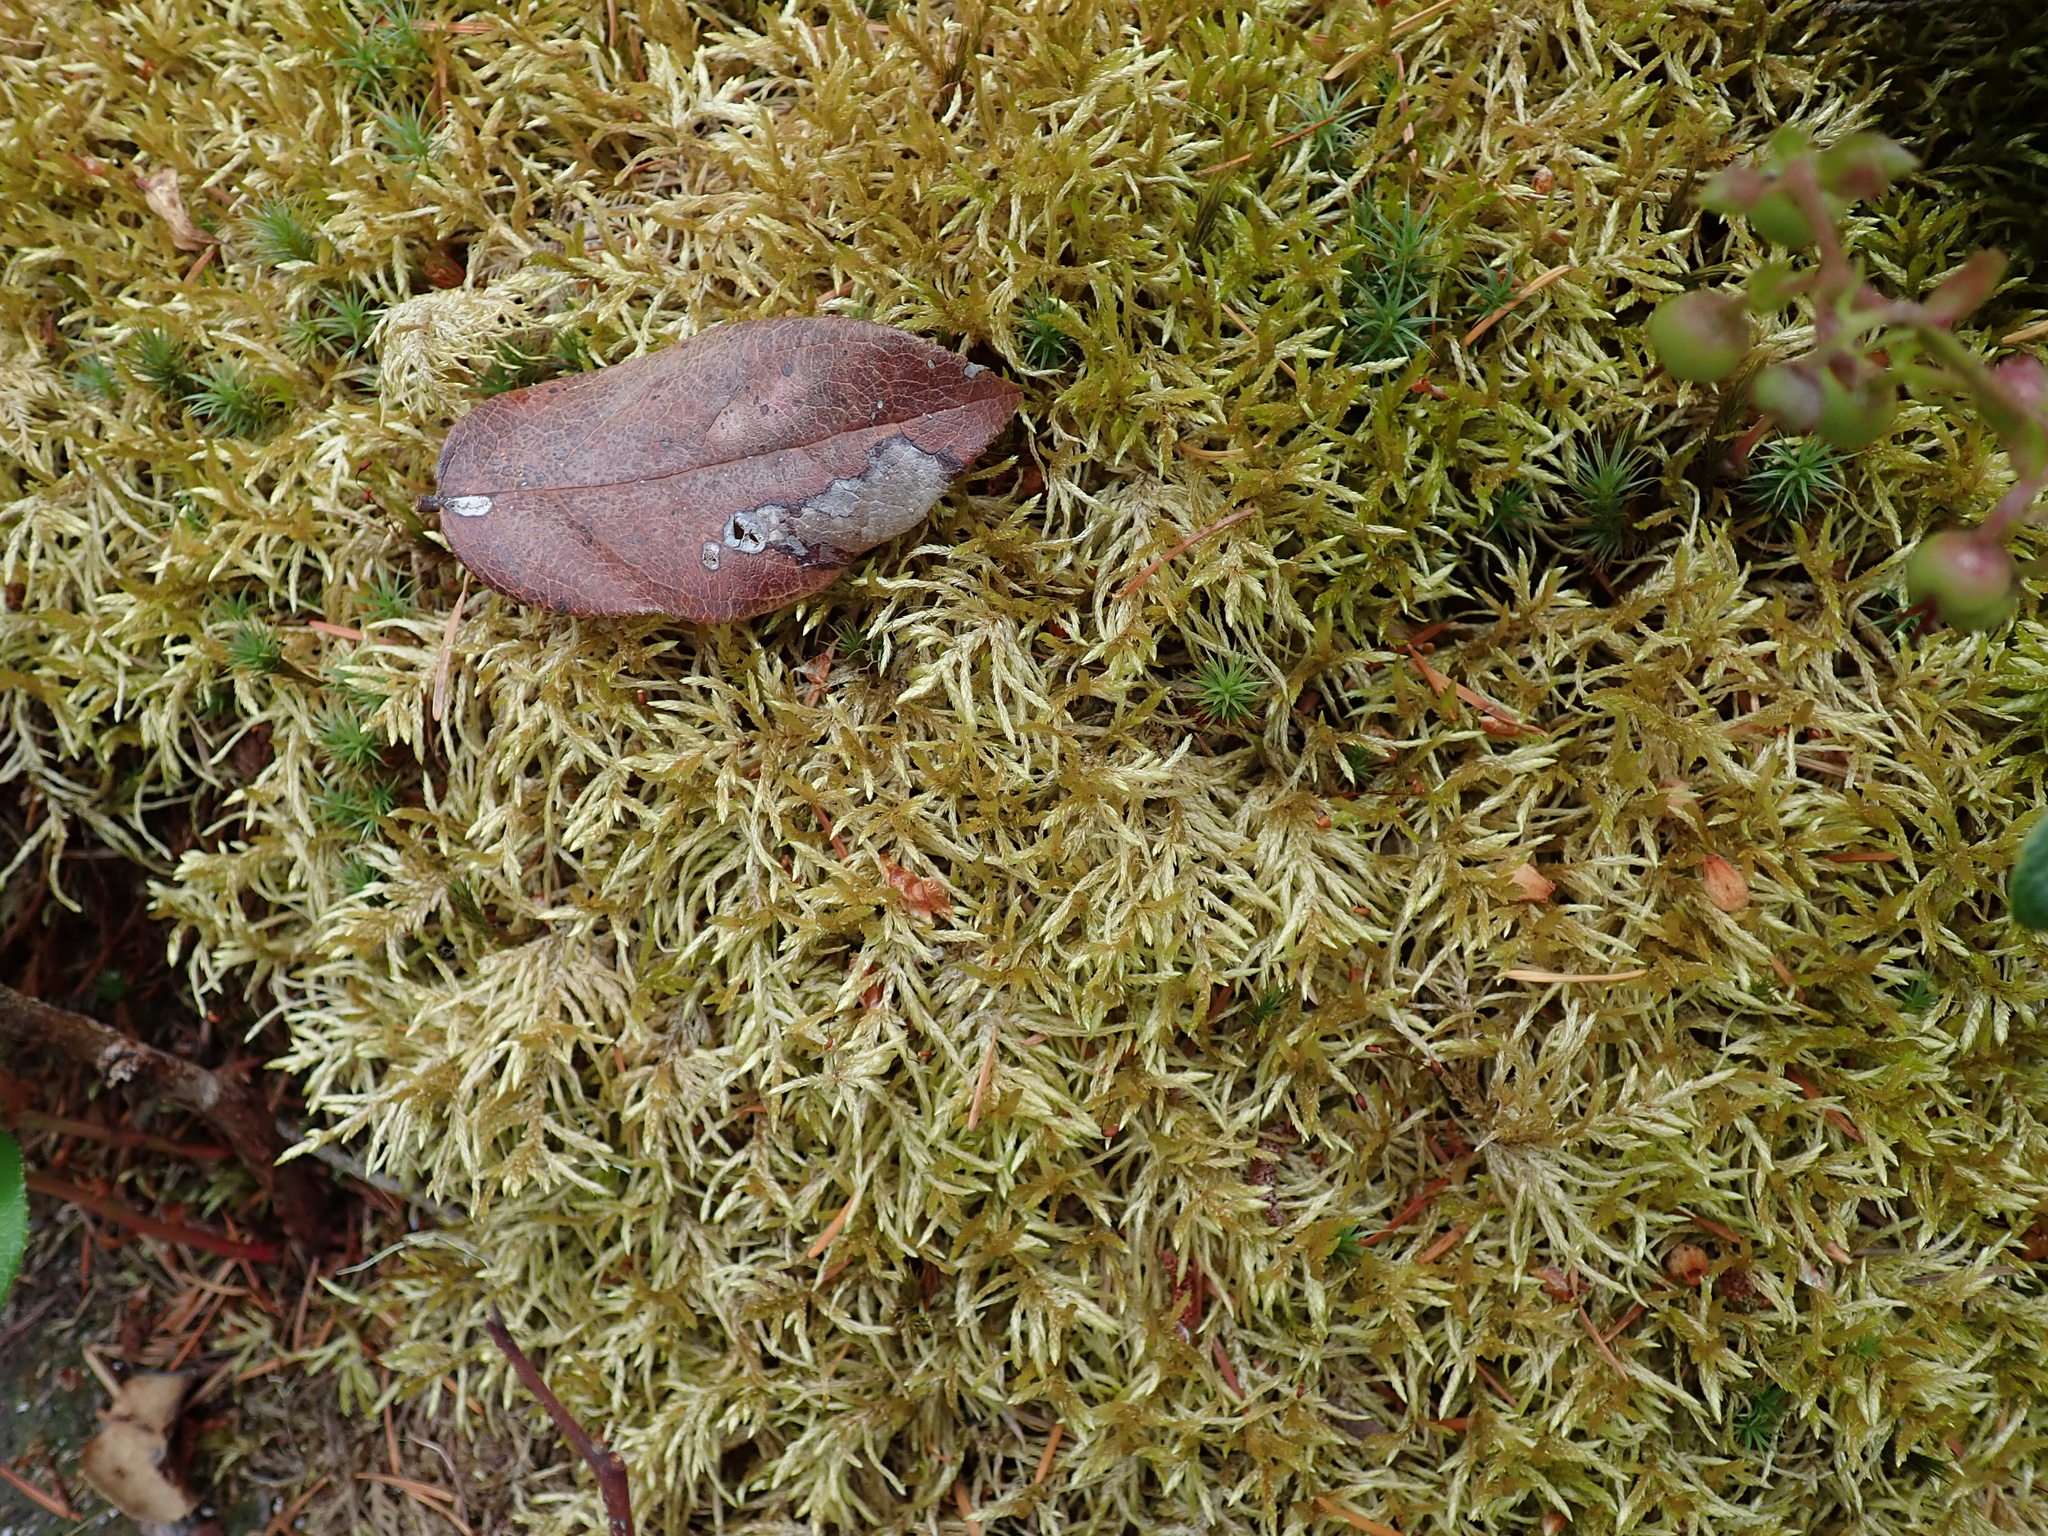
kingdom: Plantae
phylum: Bryophyta
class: Bryopsida
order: Hypnales
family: Hylocomiaceae
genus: Pleurozium
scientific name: Pleurozium schreberi
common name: Red-stemmed feather moss
